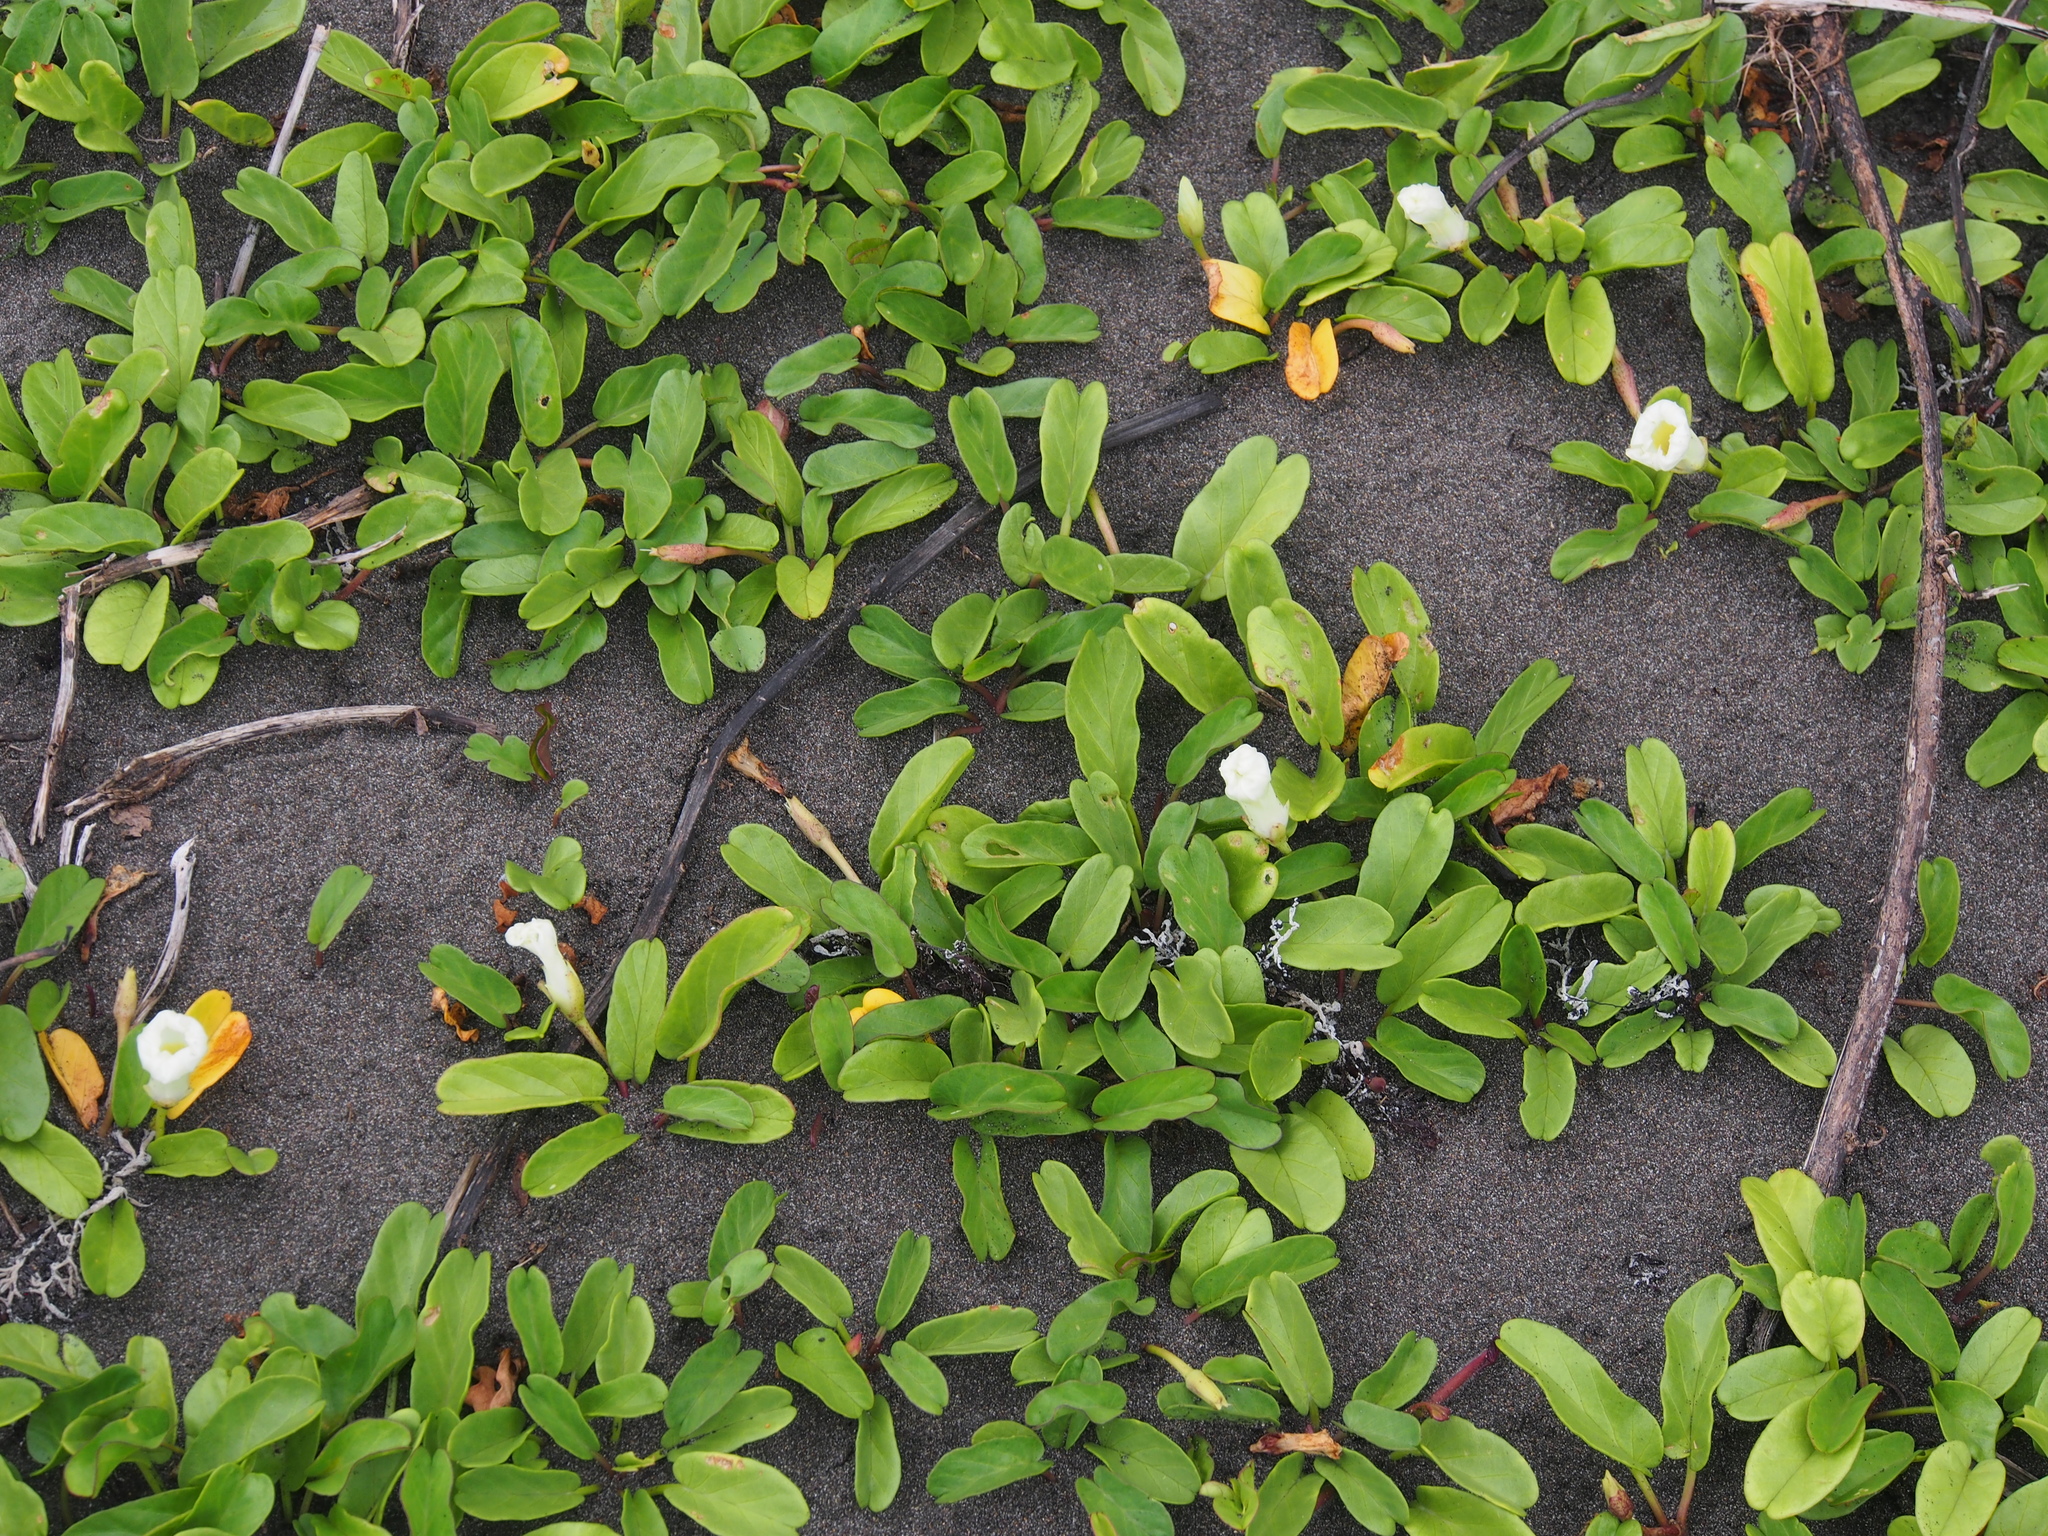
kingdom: Plantae
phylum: Tracheophyta
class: Magnoliopsida
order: Solanales
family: Convolvulaceae
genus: Ipomoea
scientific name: Ipomoea imperati
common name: Fiddle-leaf morning-glory
